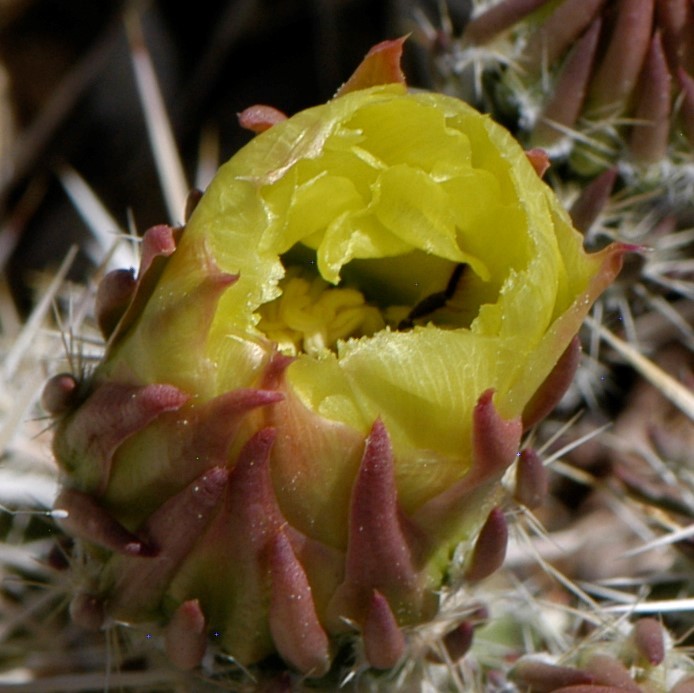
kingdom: Animalia
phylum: Arthropoda
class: Insecta
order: Hymenoptera
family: Megachilidae
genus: Lithurgopsis
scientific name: Lithurgopsis apicalis
